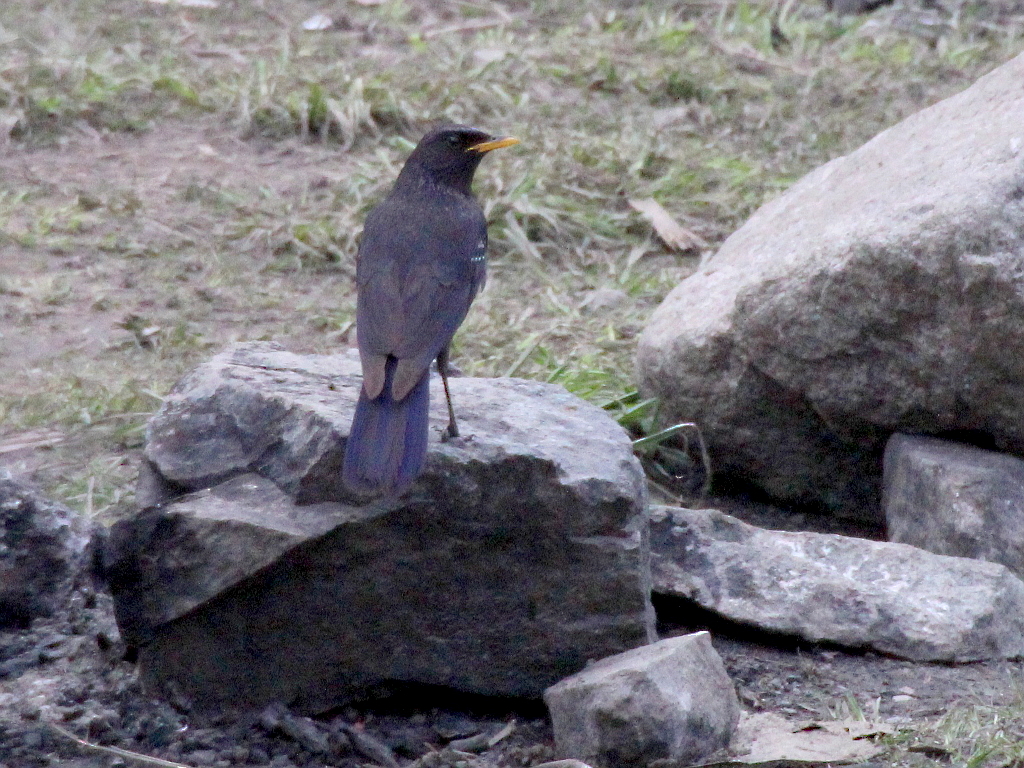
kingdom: Animalia
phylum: Chordata
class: Aves
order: Passeriformes
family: Muscicapidae
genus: Myophonus
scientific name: Myophonus caeruleus
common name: Blue whistling-thrush
